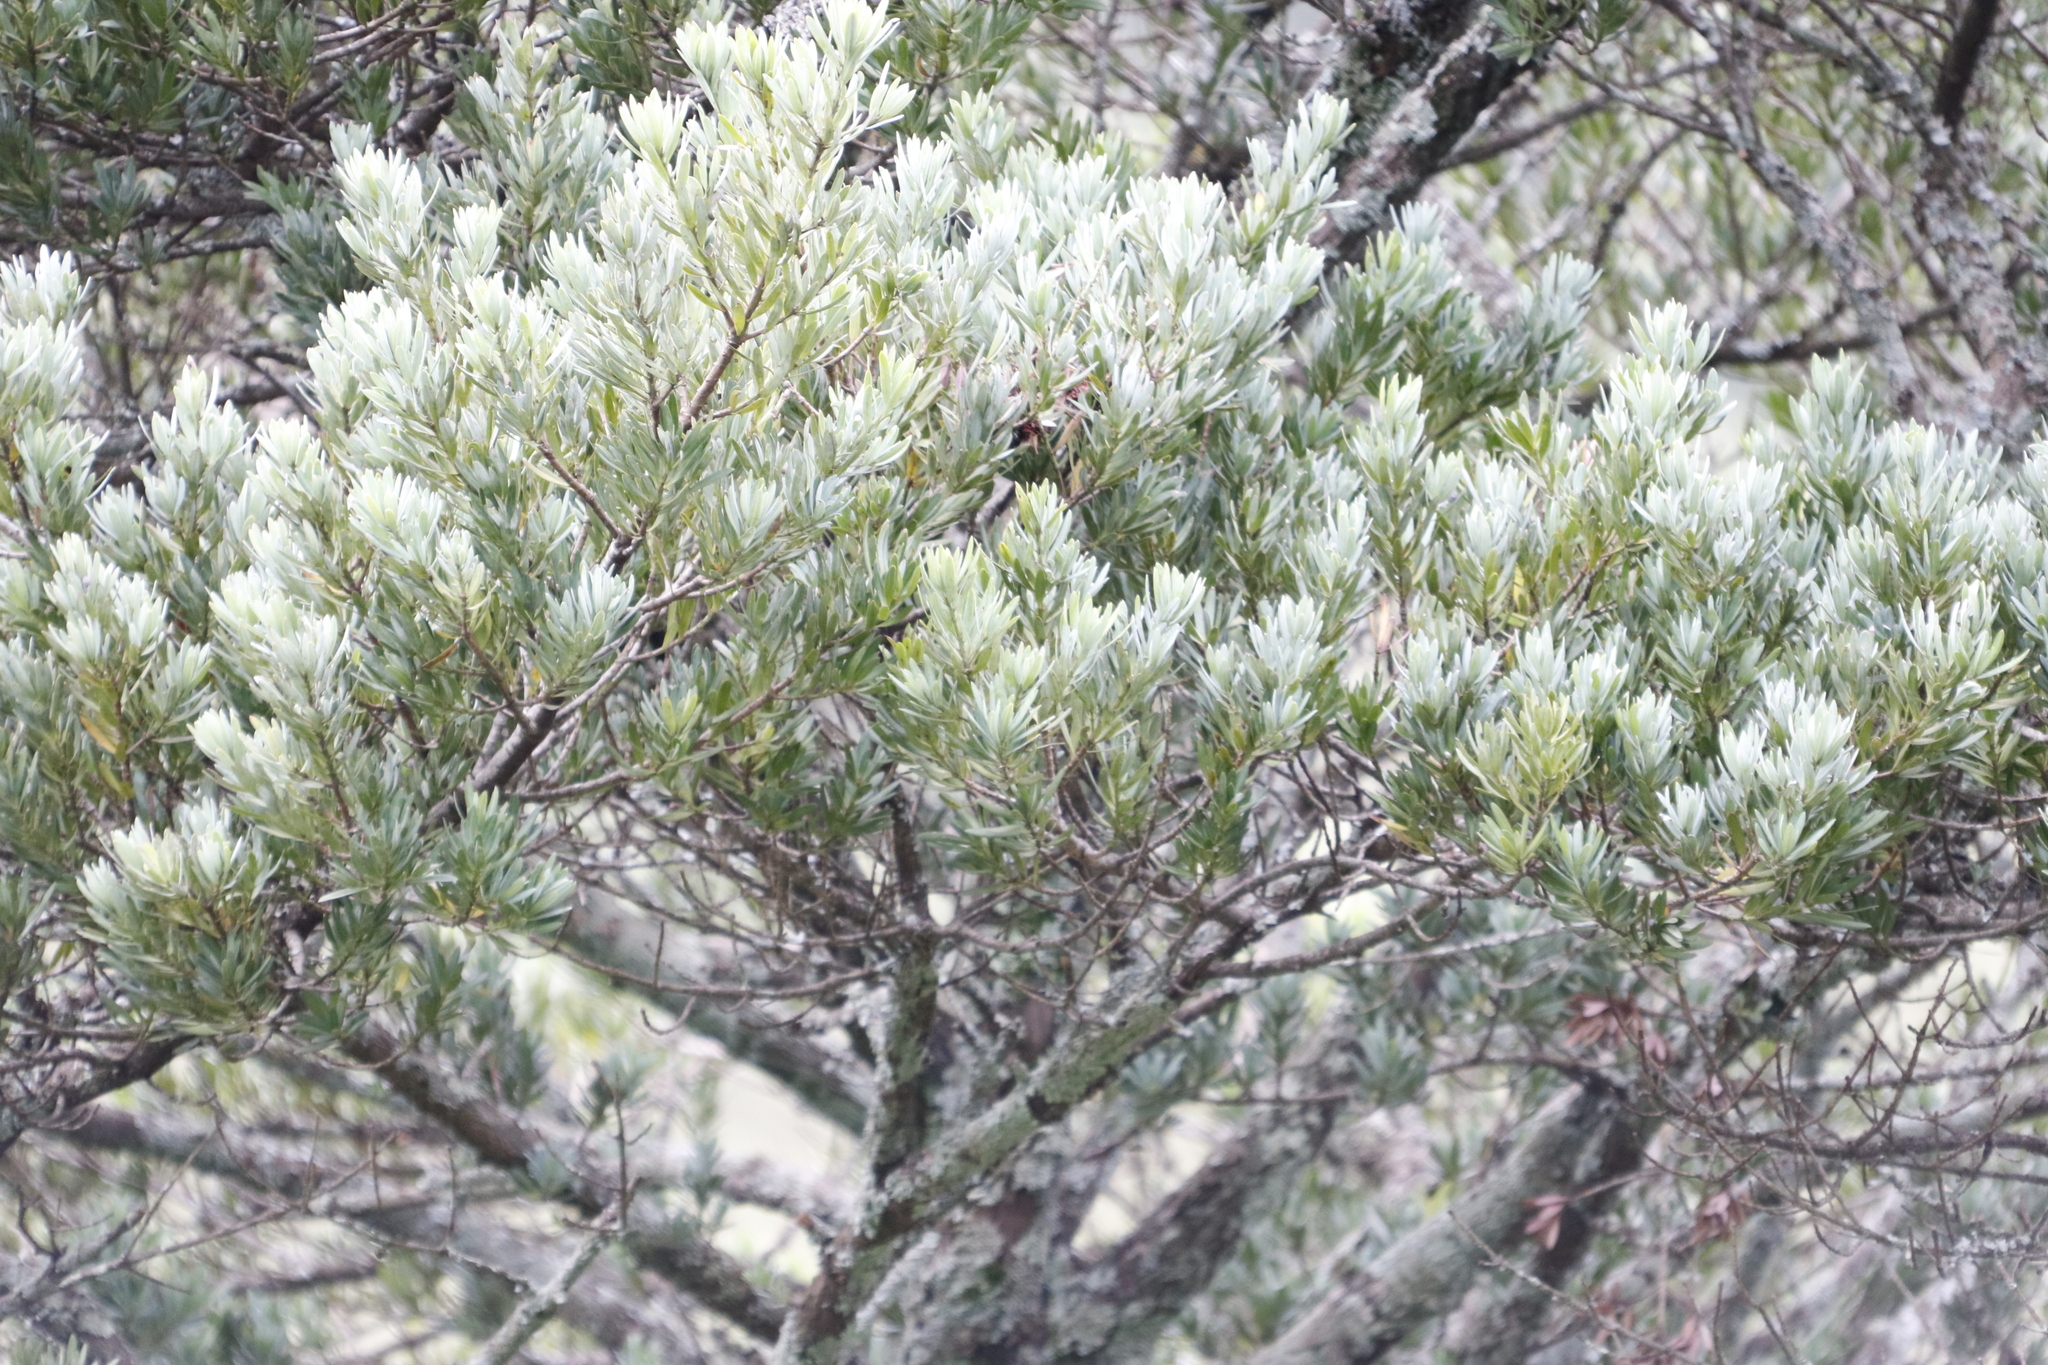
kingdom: Plantae
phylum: Tracheophyta
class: Pinopsida
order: Pinales
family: Podocarpaceae
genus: Podocarpus
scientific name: Podocarpus latifolius
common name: True yellowwood
